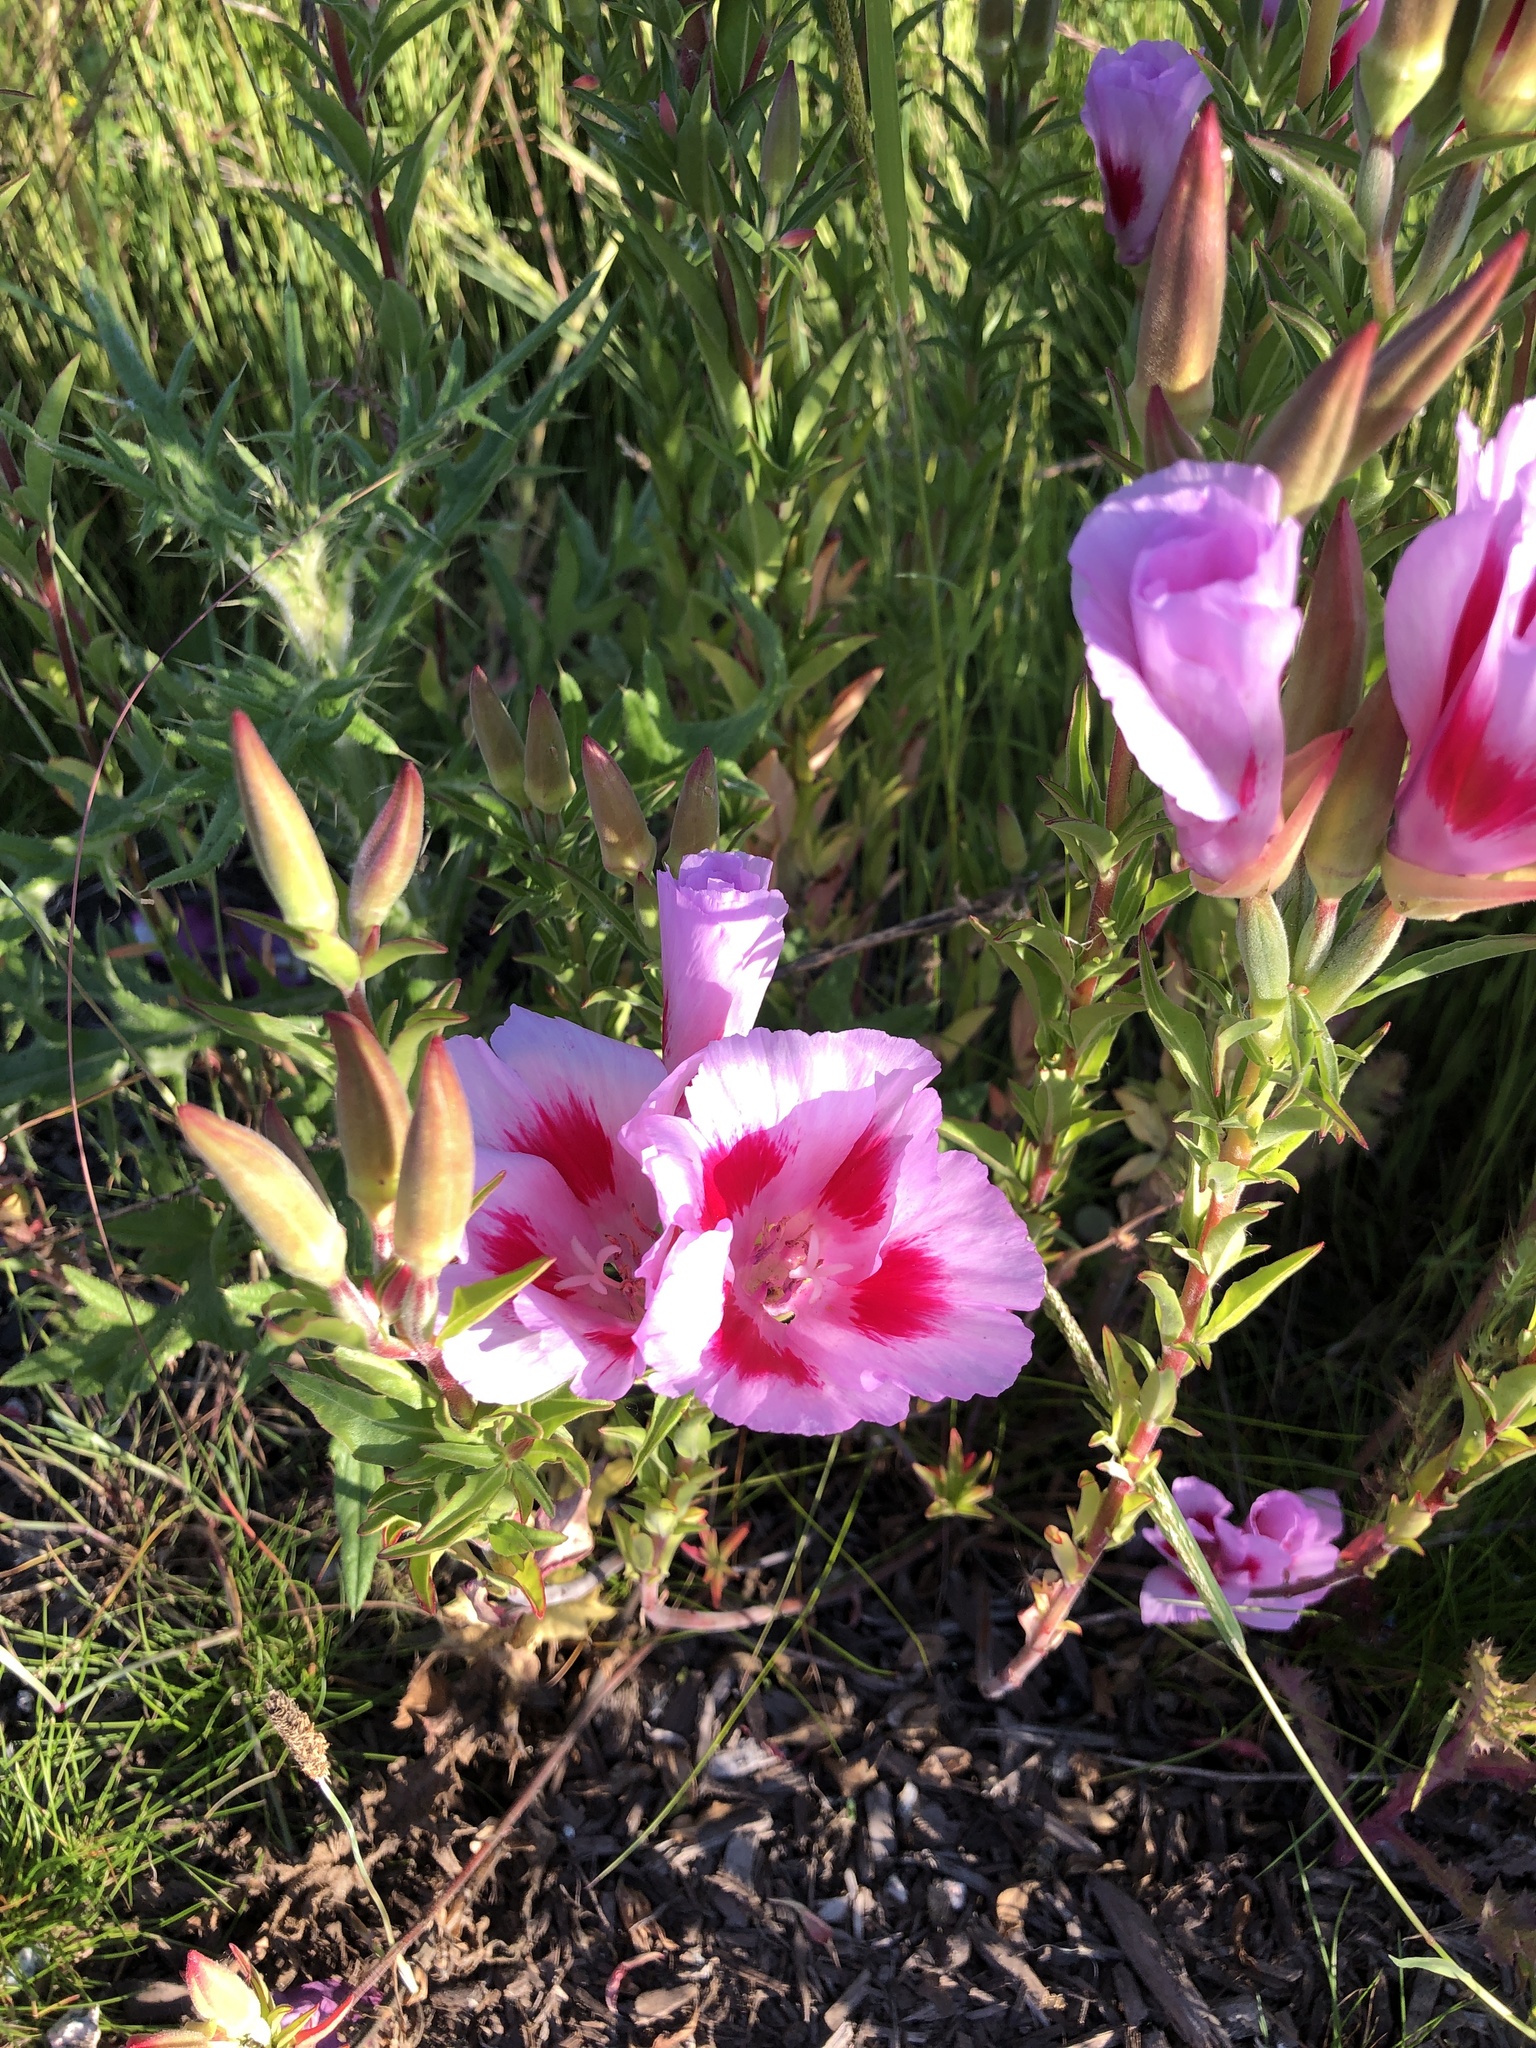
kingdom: Plantae
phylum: Tracheophyta
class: Magnoliopsida
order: Myrtales
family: Onagraceae
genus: Clarkia
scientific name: Clarkia amoena
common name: Godetia
